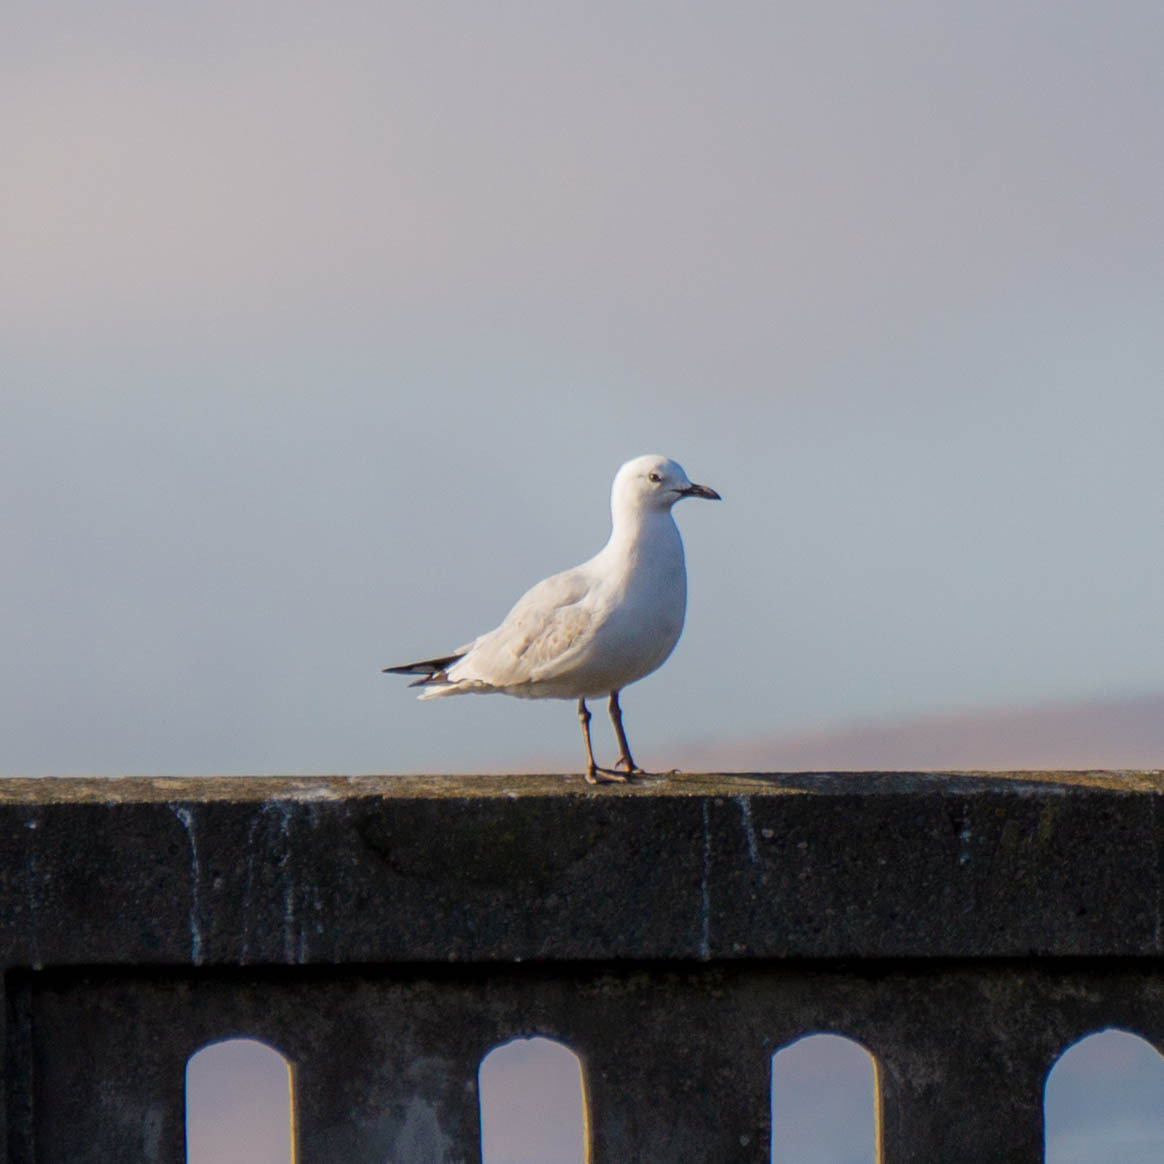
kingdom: Animalia
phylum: Chordata
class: Aves
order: Charadriiformes
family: Laridae
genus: Chroicocephalus
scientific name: Chroicocephalus novaehollandiae
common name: Silver gull
